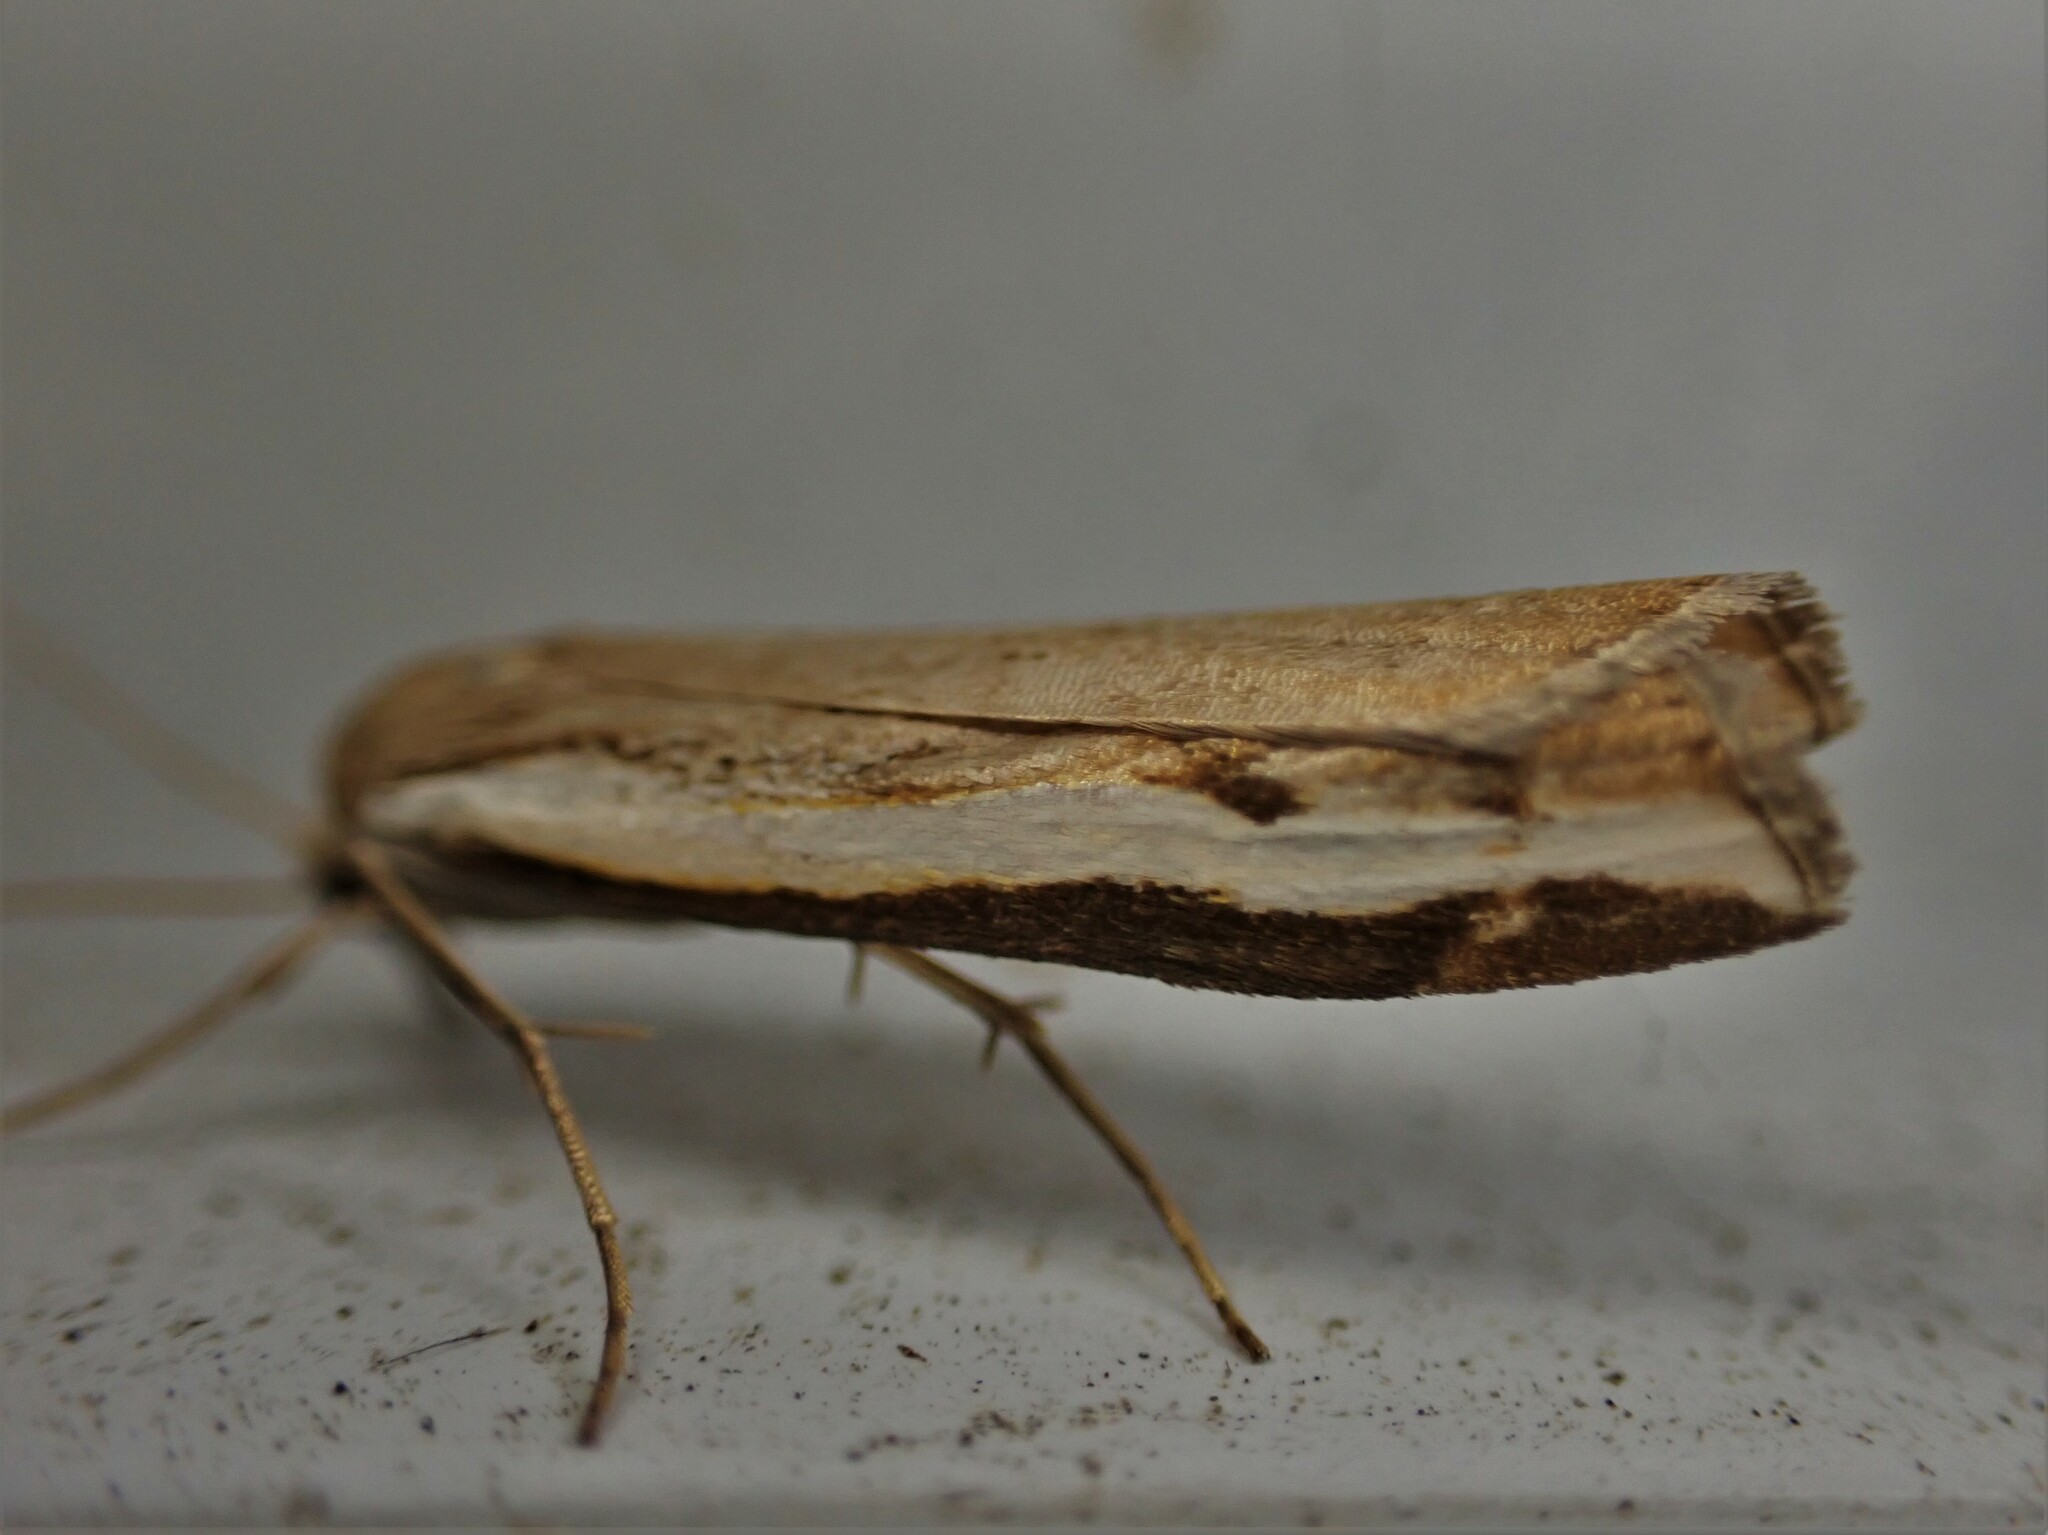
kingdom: Animalia
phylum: Arthropoda
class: Insecta
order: Lepidoptera
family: Crambidae
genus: Orocrambus
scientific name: Orocrambus flexuosellus
